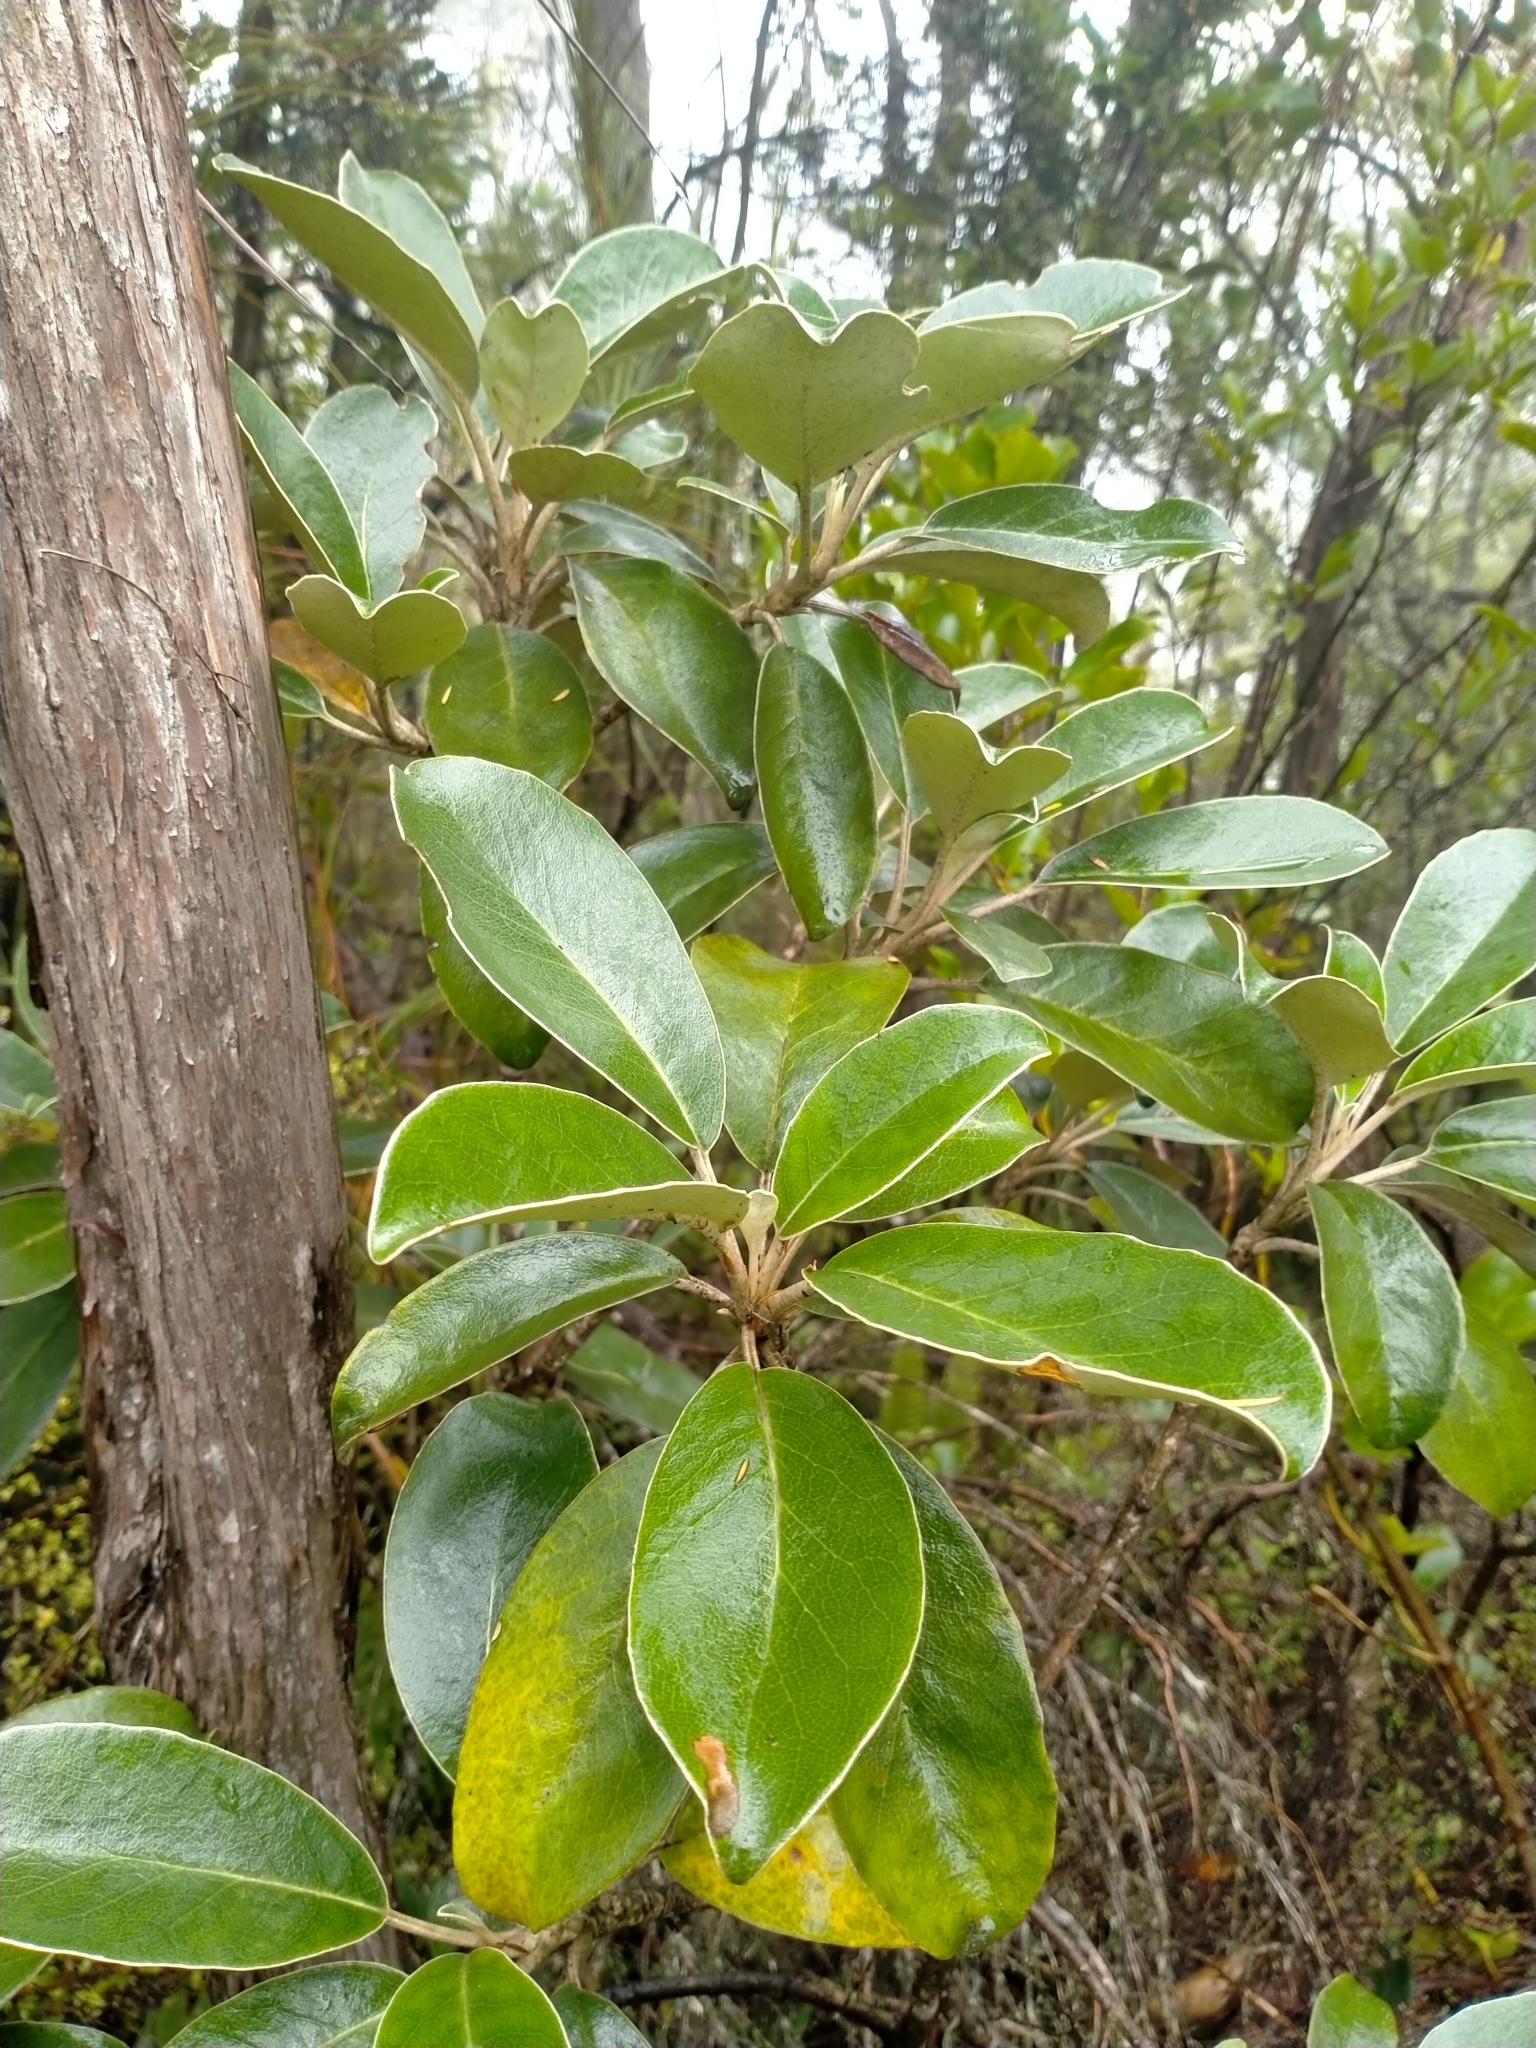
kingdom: Plantae
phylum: Tracheophyta
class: Magnoliopsida
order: Asterales
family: Asteraceae
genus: Brachyglottis
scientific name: Brachyglottis buchananii
